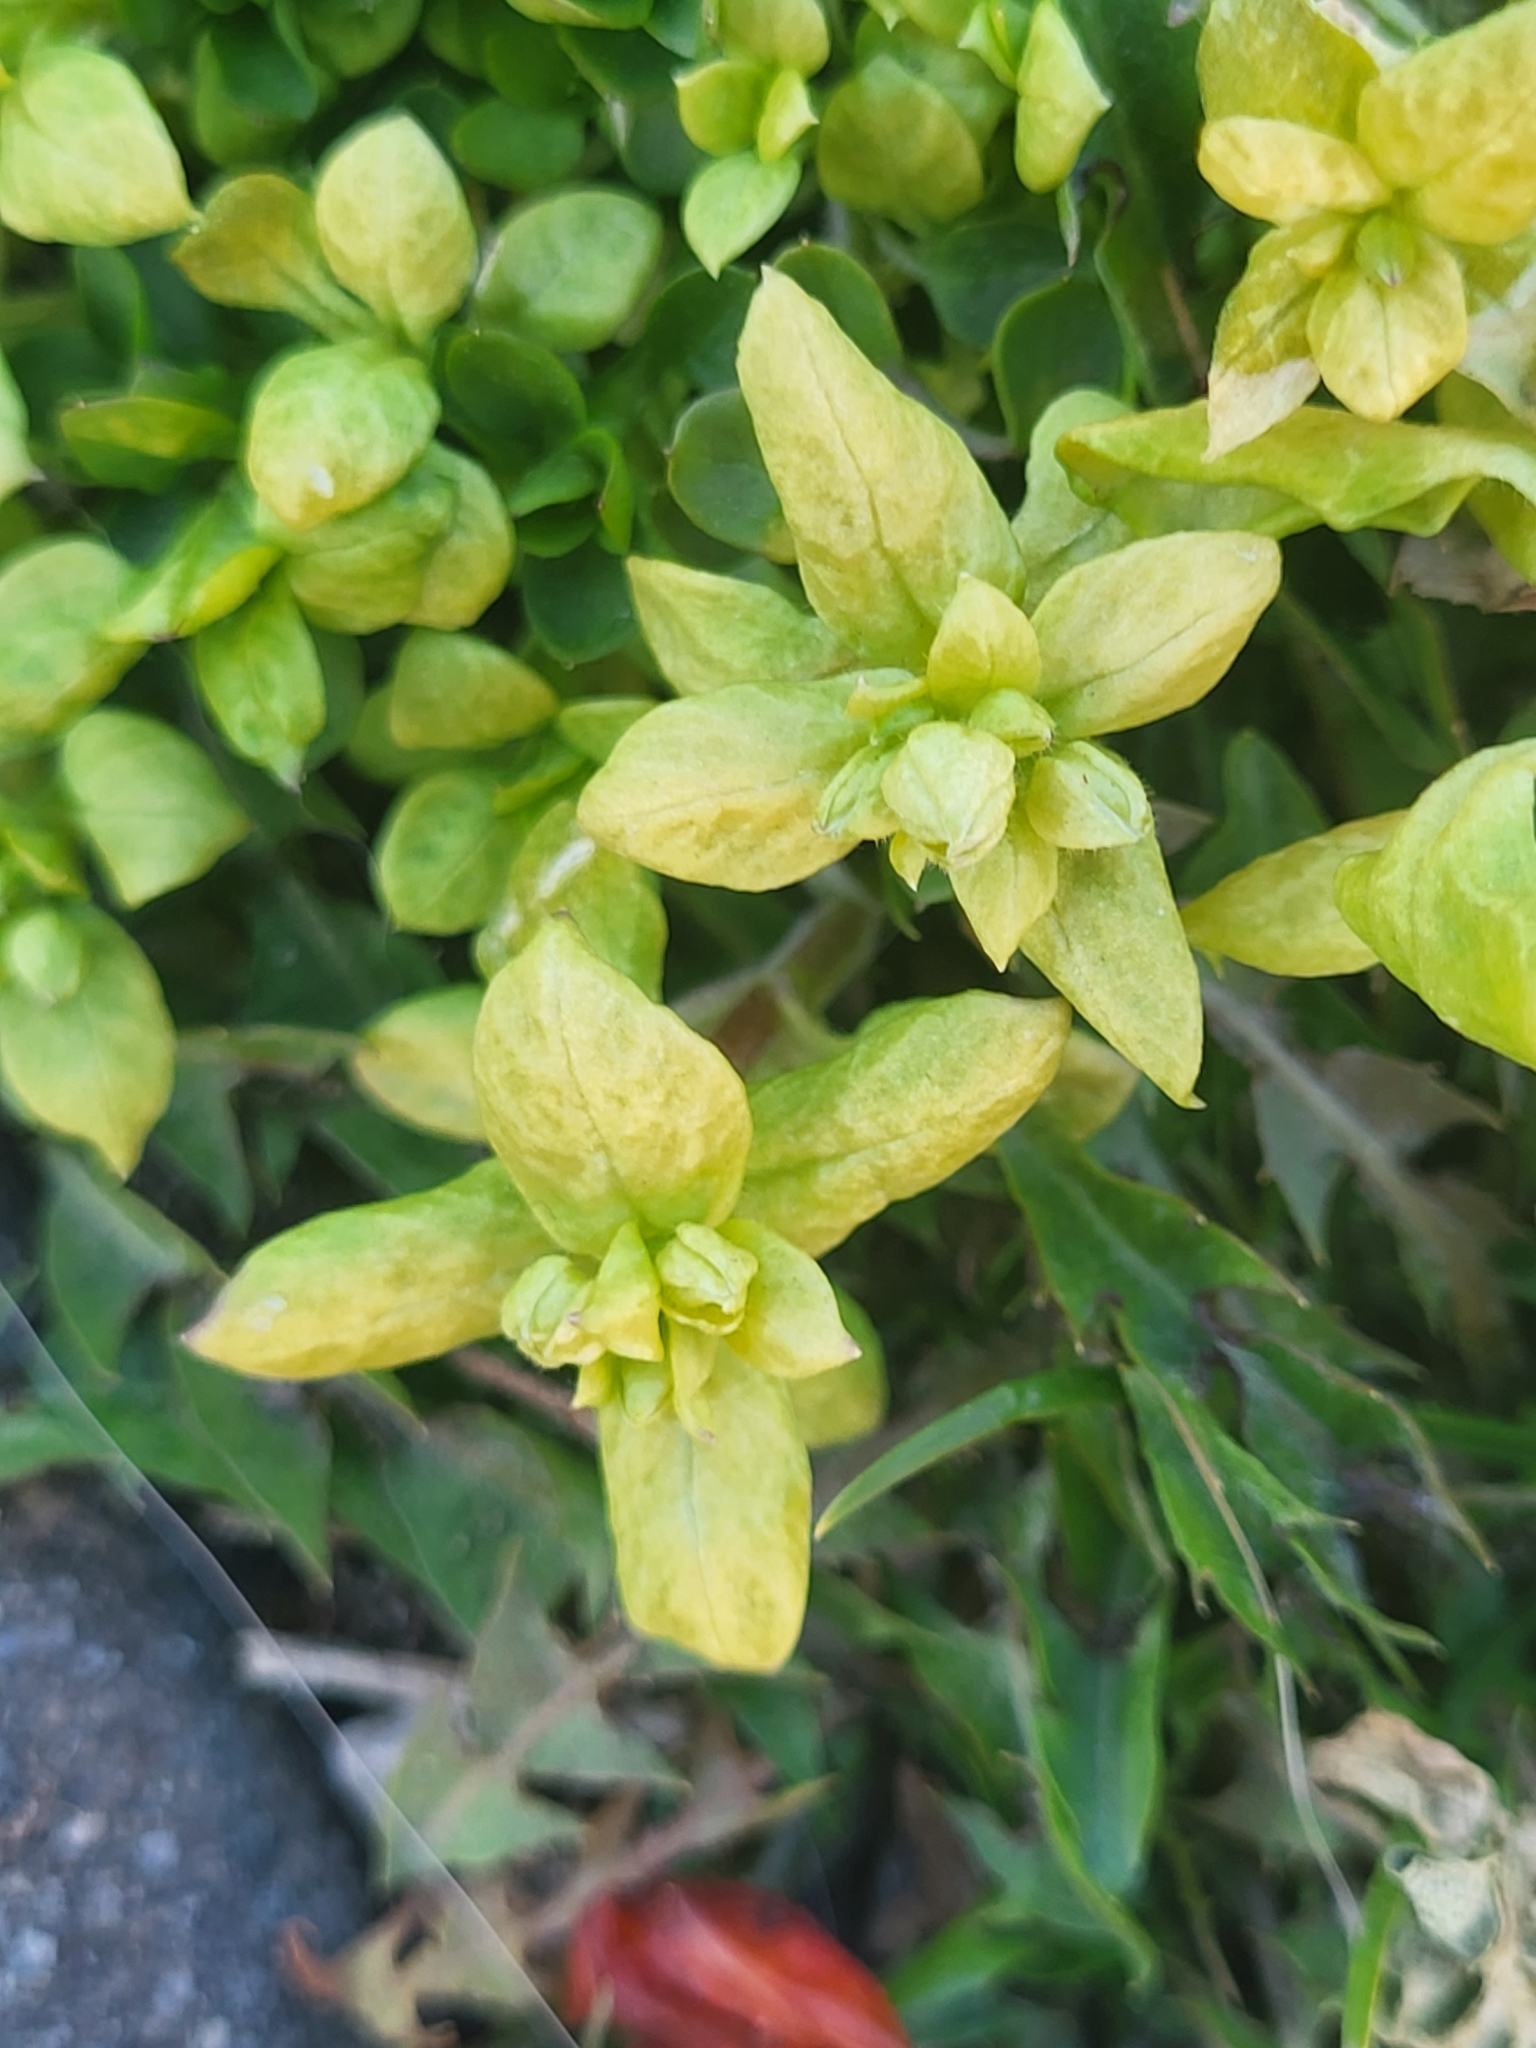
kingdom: Plantae
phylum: Tracheophyta
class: Magnoliopsida
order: Caryophyllales
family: Caryophyllaceae
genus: Stellaria
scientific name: Stellaria
